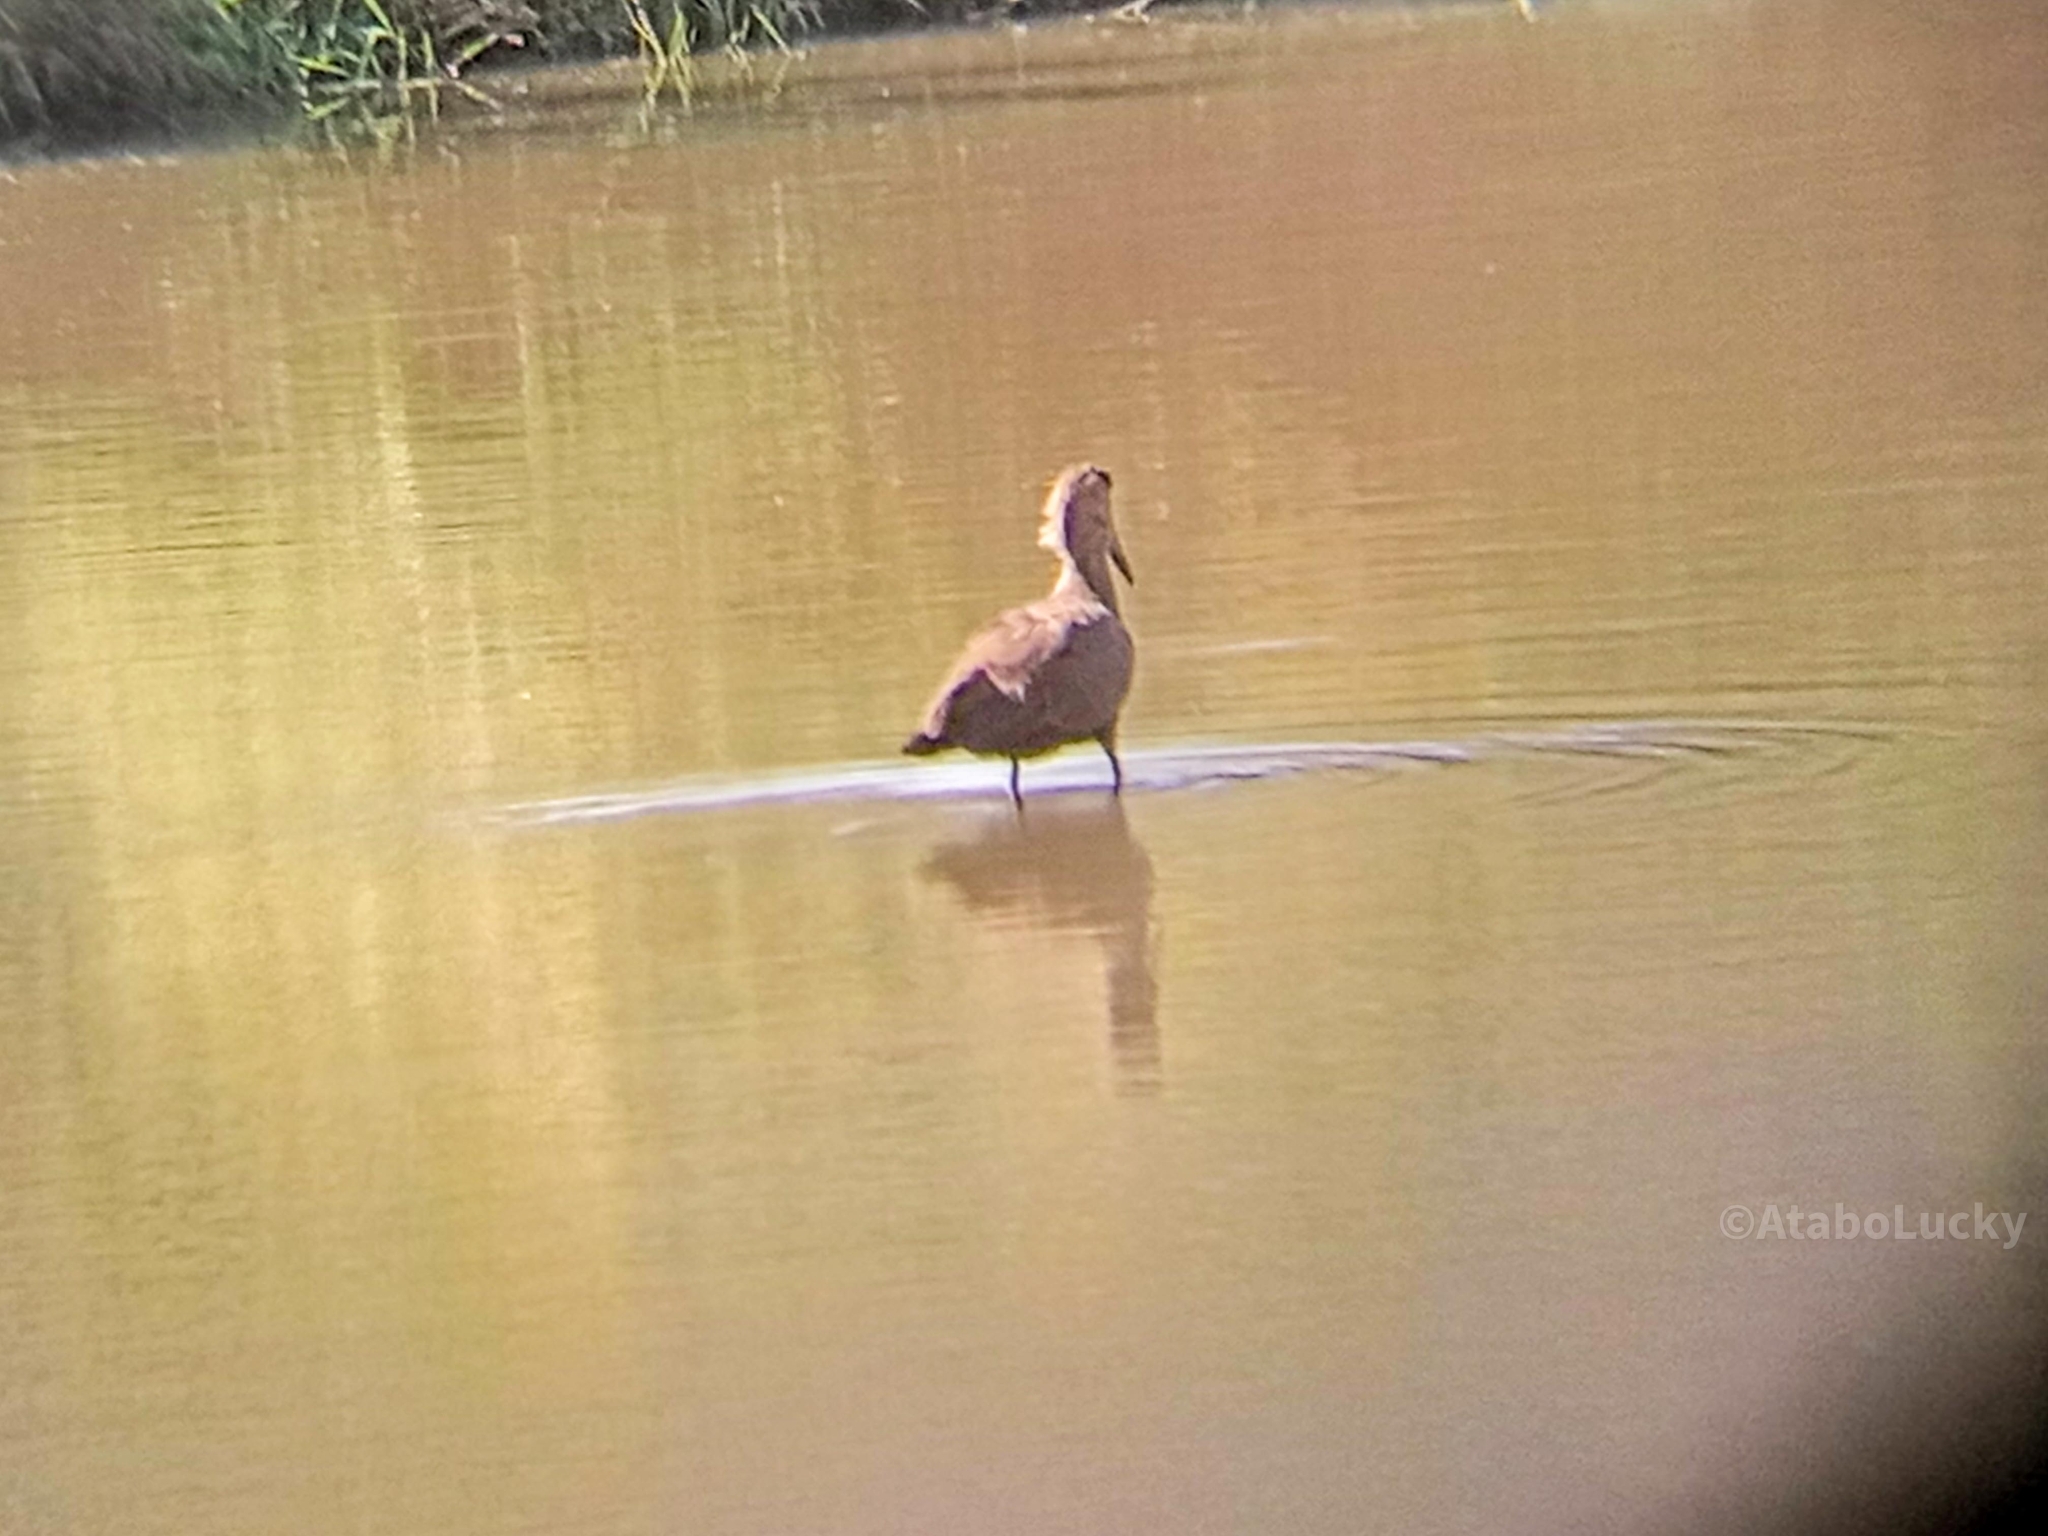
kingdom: Animalia
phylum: Chordata
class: Aves
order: Pelecaniformes
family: Scopidae
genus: Scopus
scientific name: Scopus umbretta
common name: Hamerkop
